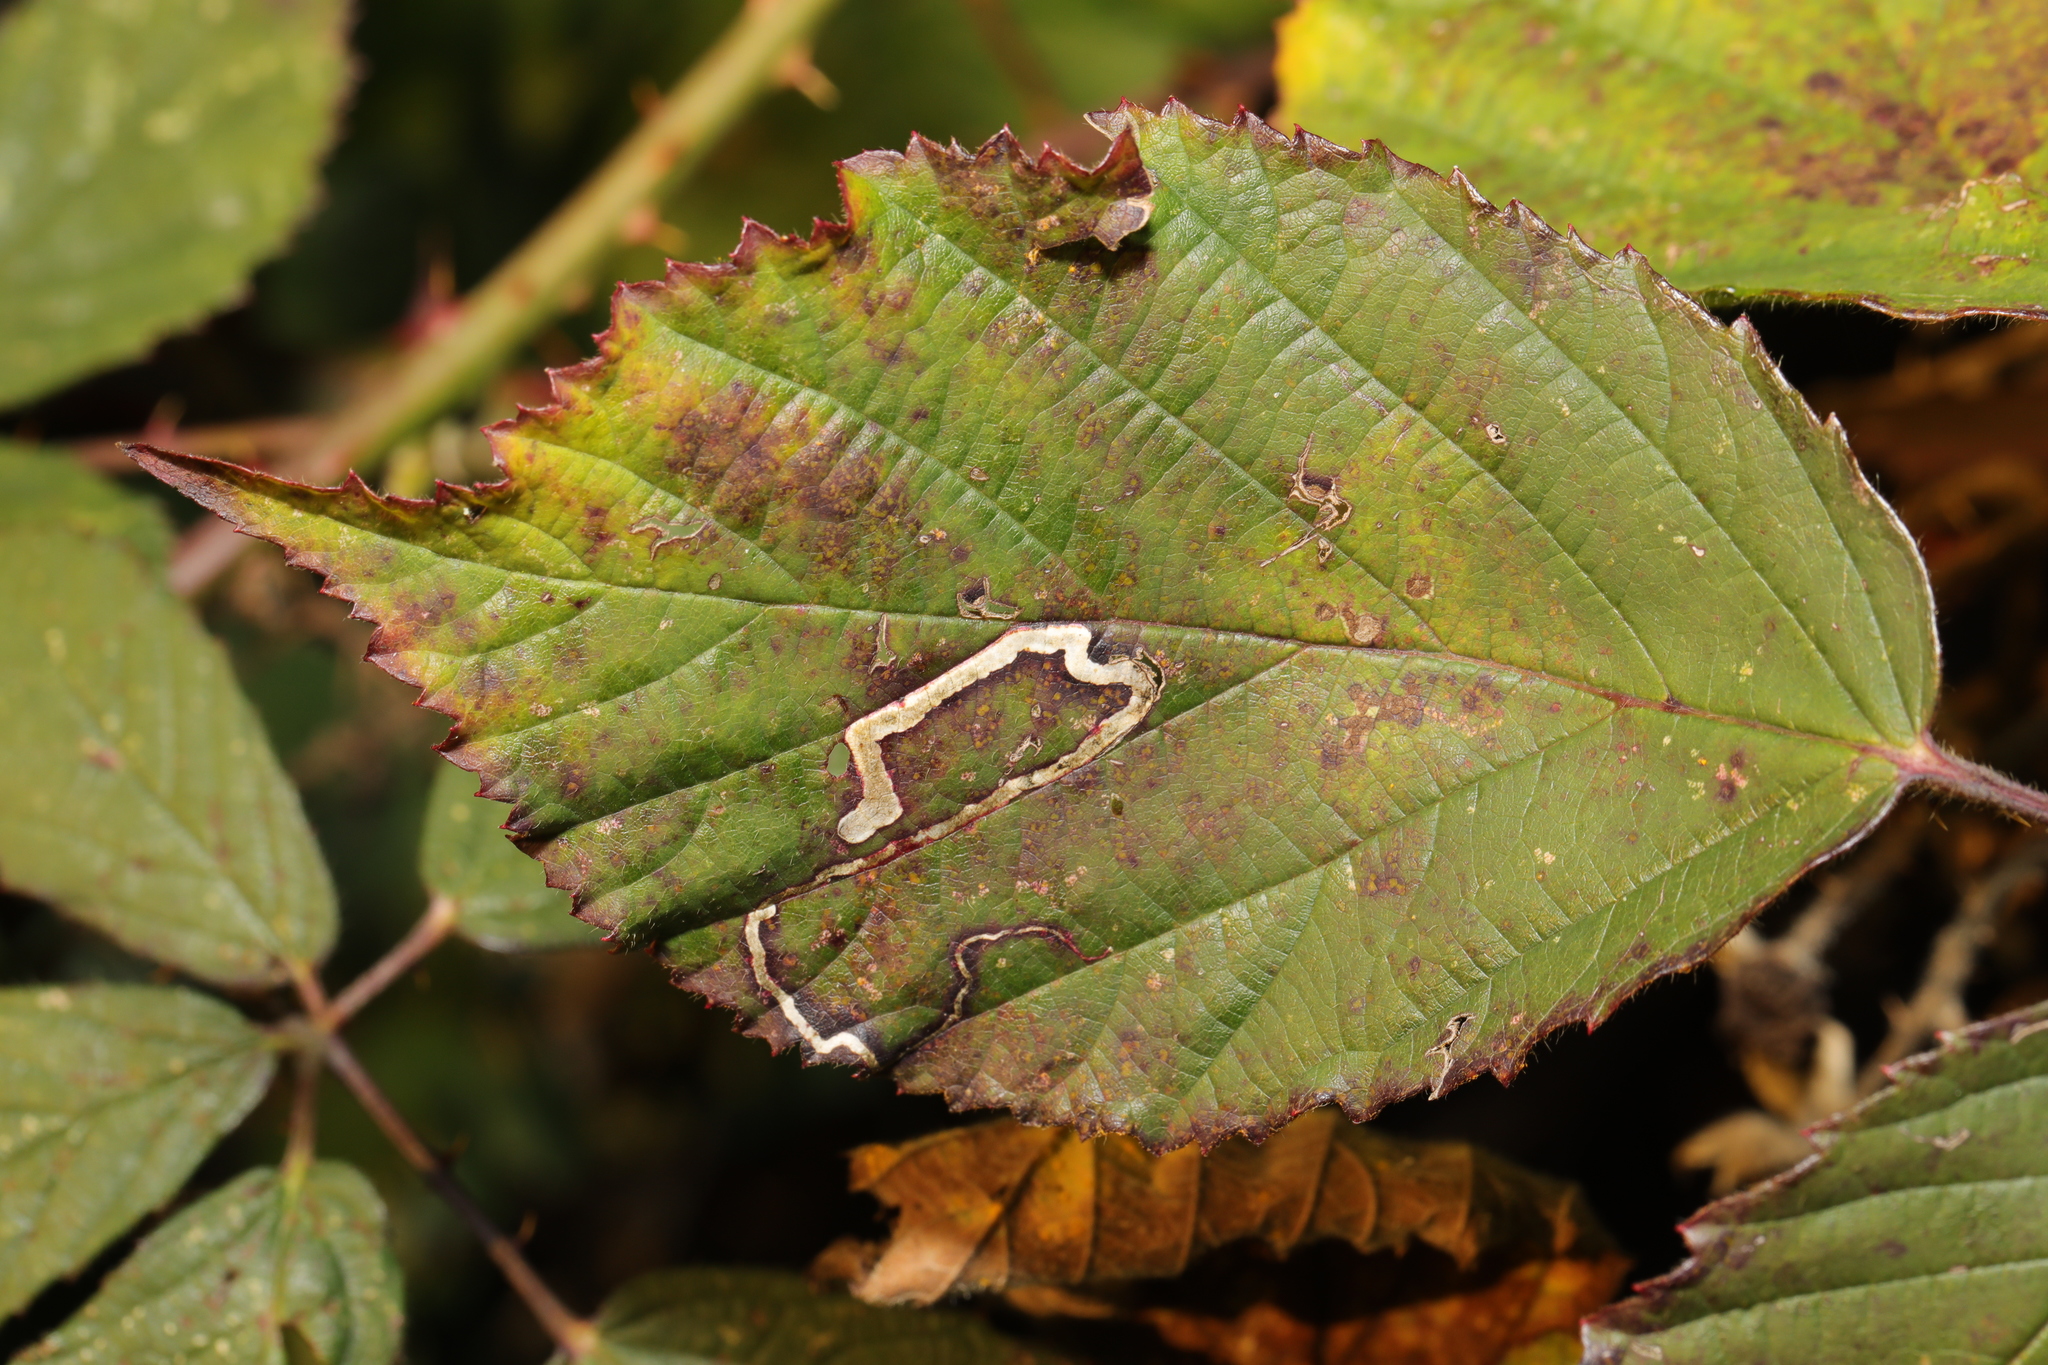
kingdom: Animalia
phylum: Arthropoda
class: Insecta
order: Lepidoptera
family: Nepticulidae
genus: Stigmella
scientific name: Stigmella aurella
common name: Golden pigmy
